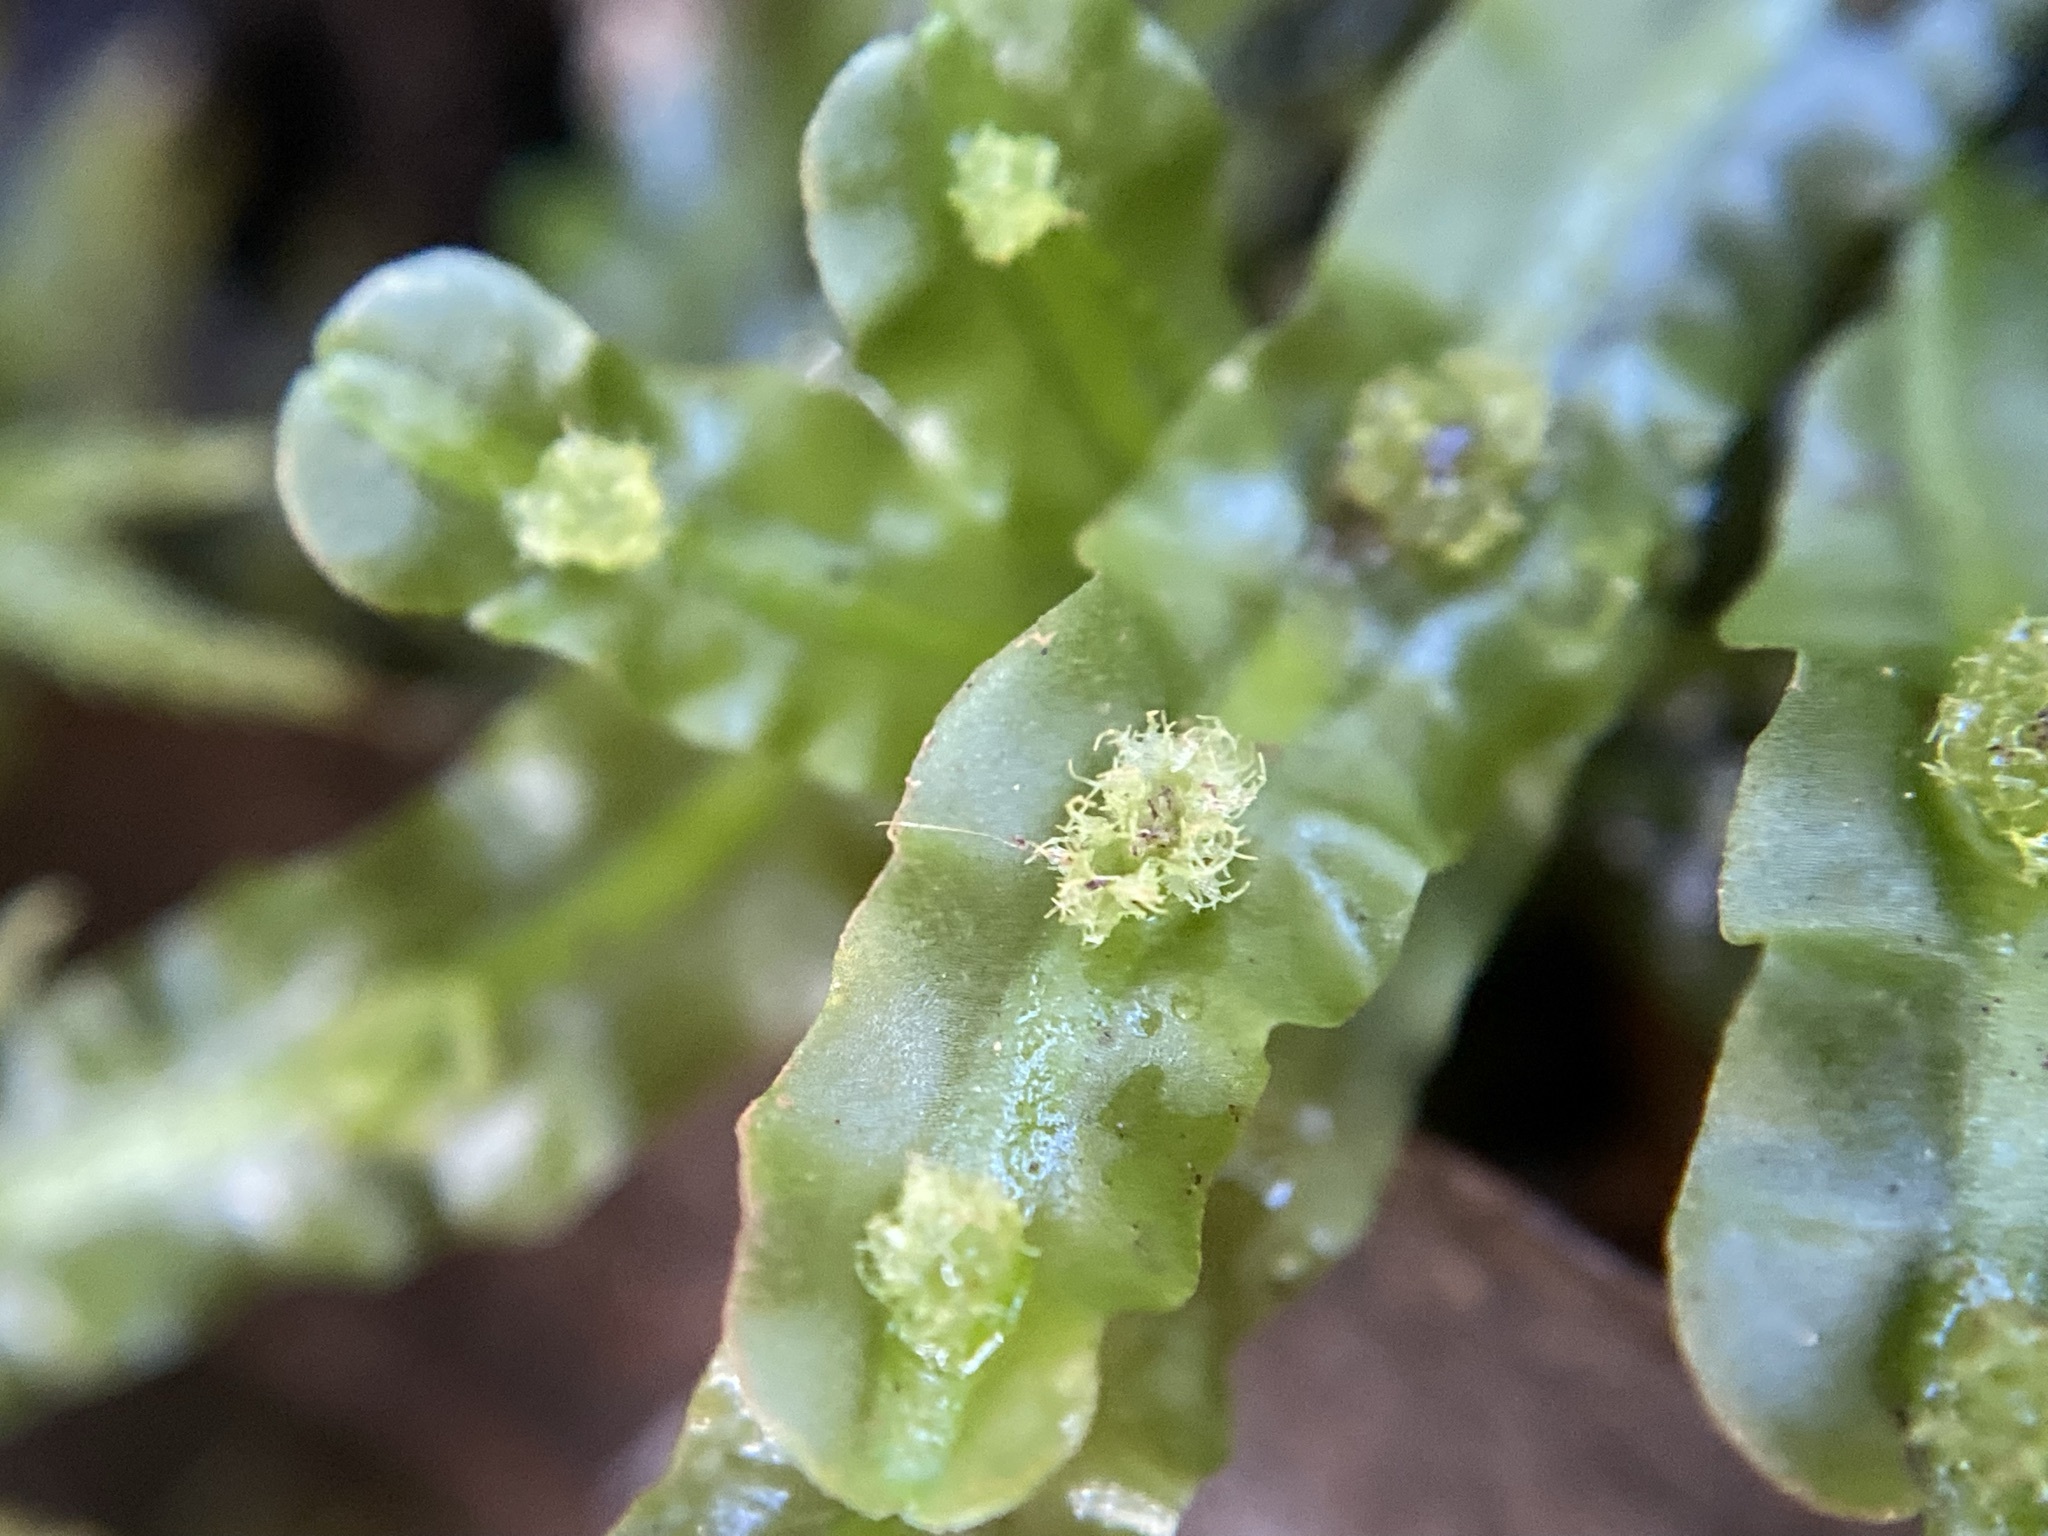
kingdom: Plantae
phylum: Marchantiophyta
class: Jungermanniopsida
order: Pallaviciniales
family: Pallaviciniaceae
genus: Pallavicinia
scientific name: Pallavicinia lyellii
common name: Veilwort
